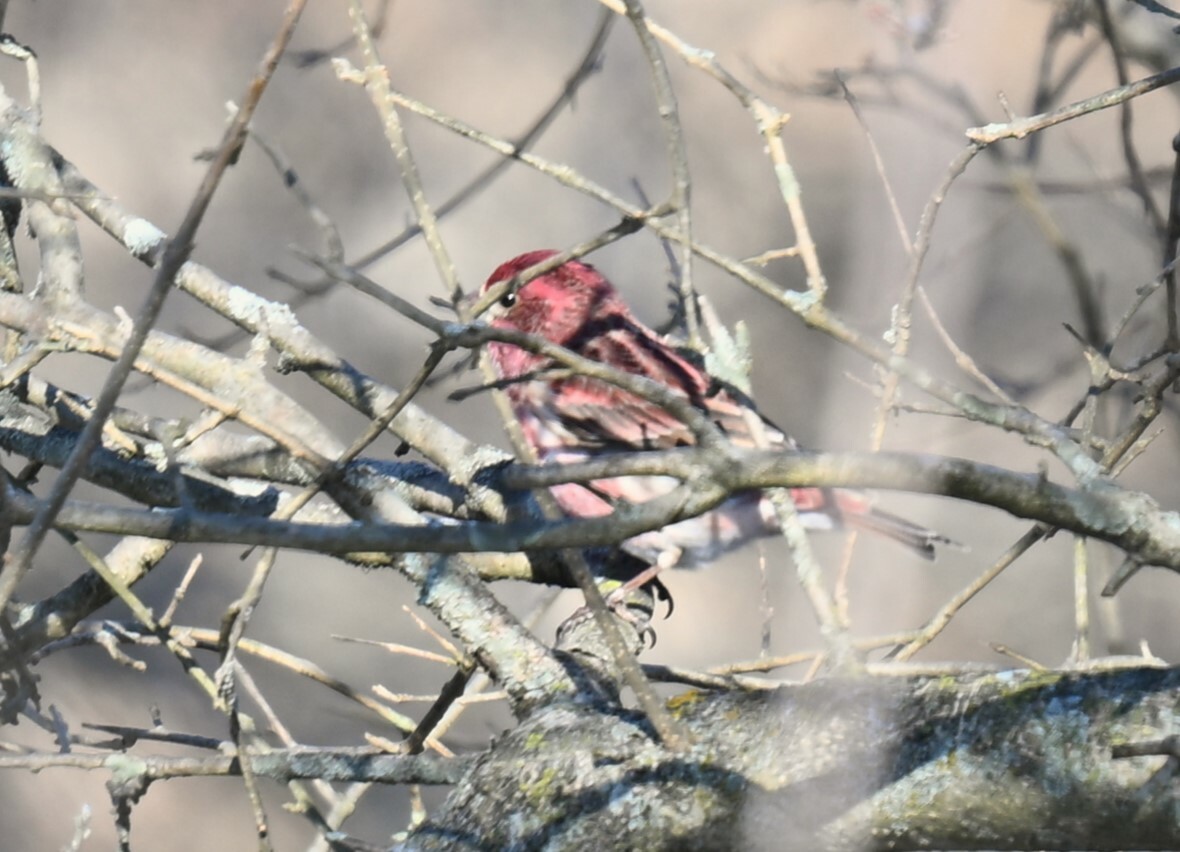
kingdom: Animalia
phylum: Chordata
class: Aves
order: Passeriformes
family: Fringillidae
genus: Haemorhous
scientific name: Haemorhous purpureus
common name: Purple finch
